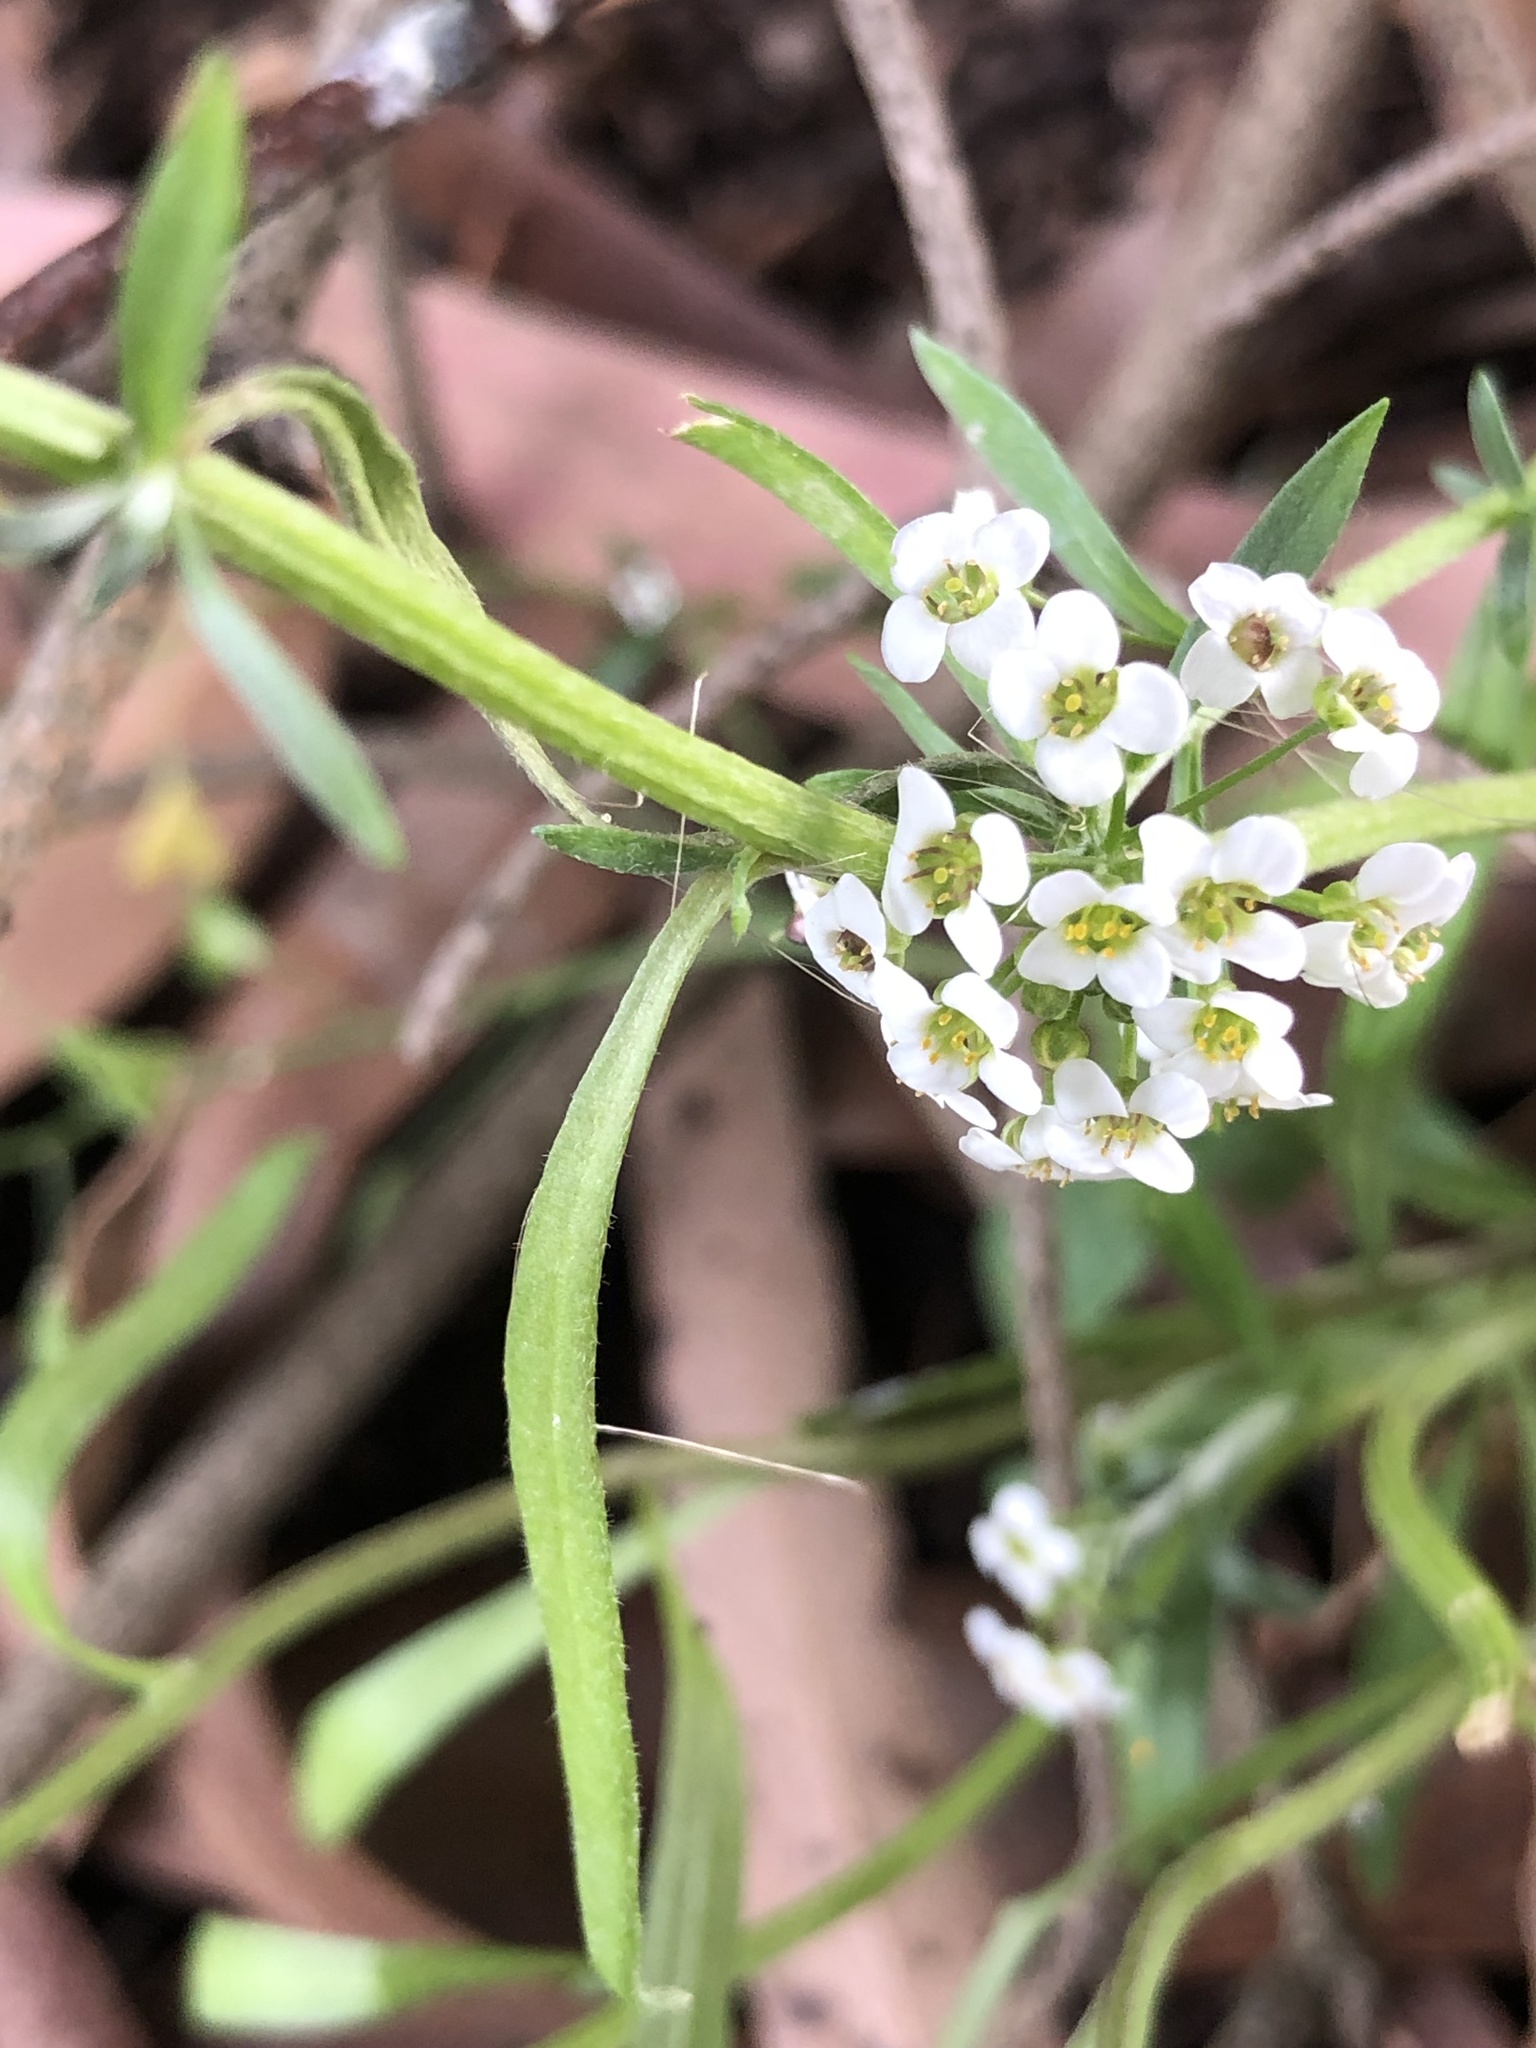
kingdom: Plantae
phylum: Tracheophyta
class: Magnoliopsida
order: Brassicales
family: Brassicaceae
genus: Lobularia
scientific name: Lobularia maritima
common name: Sweet alison
